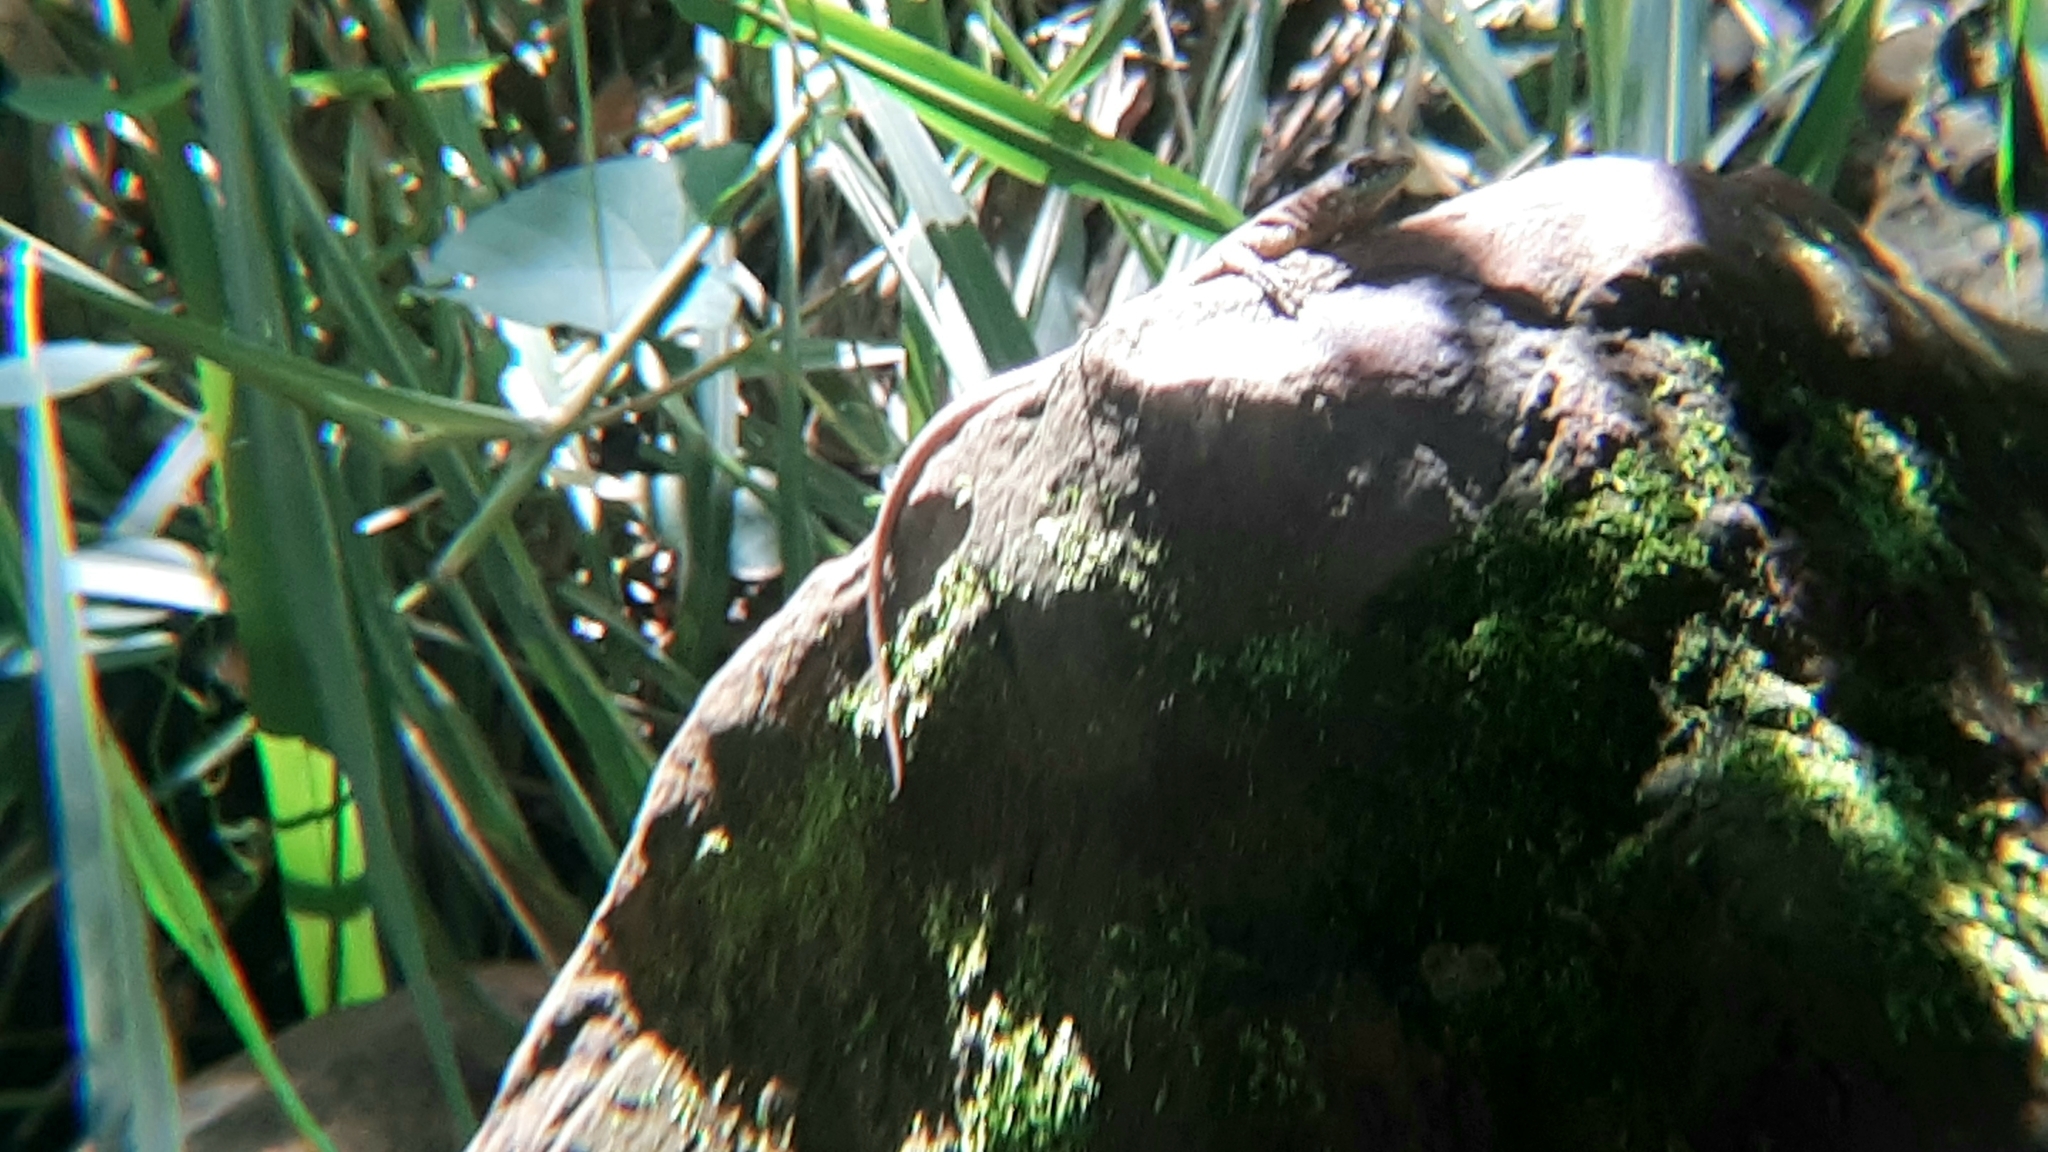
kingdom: Animalia
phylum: Chordata
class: Squamata
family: Tropiduridae
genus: Tropidurus
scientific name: Tropidurus torquatus
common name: Amazon lava lizard
